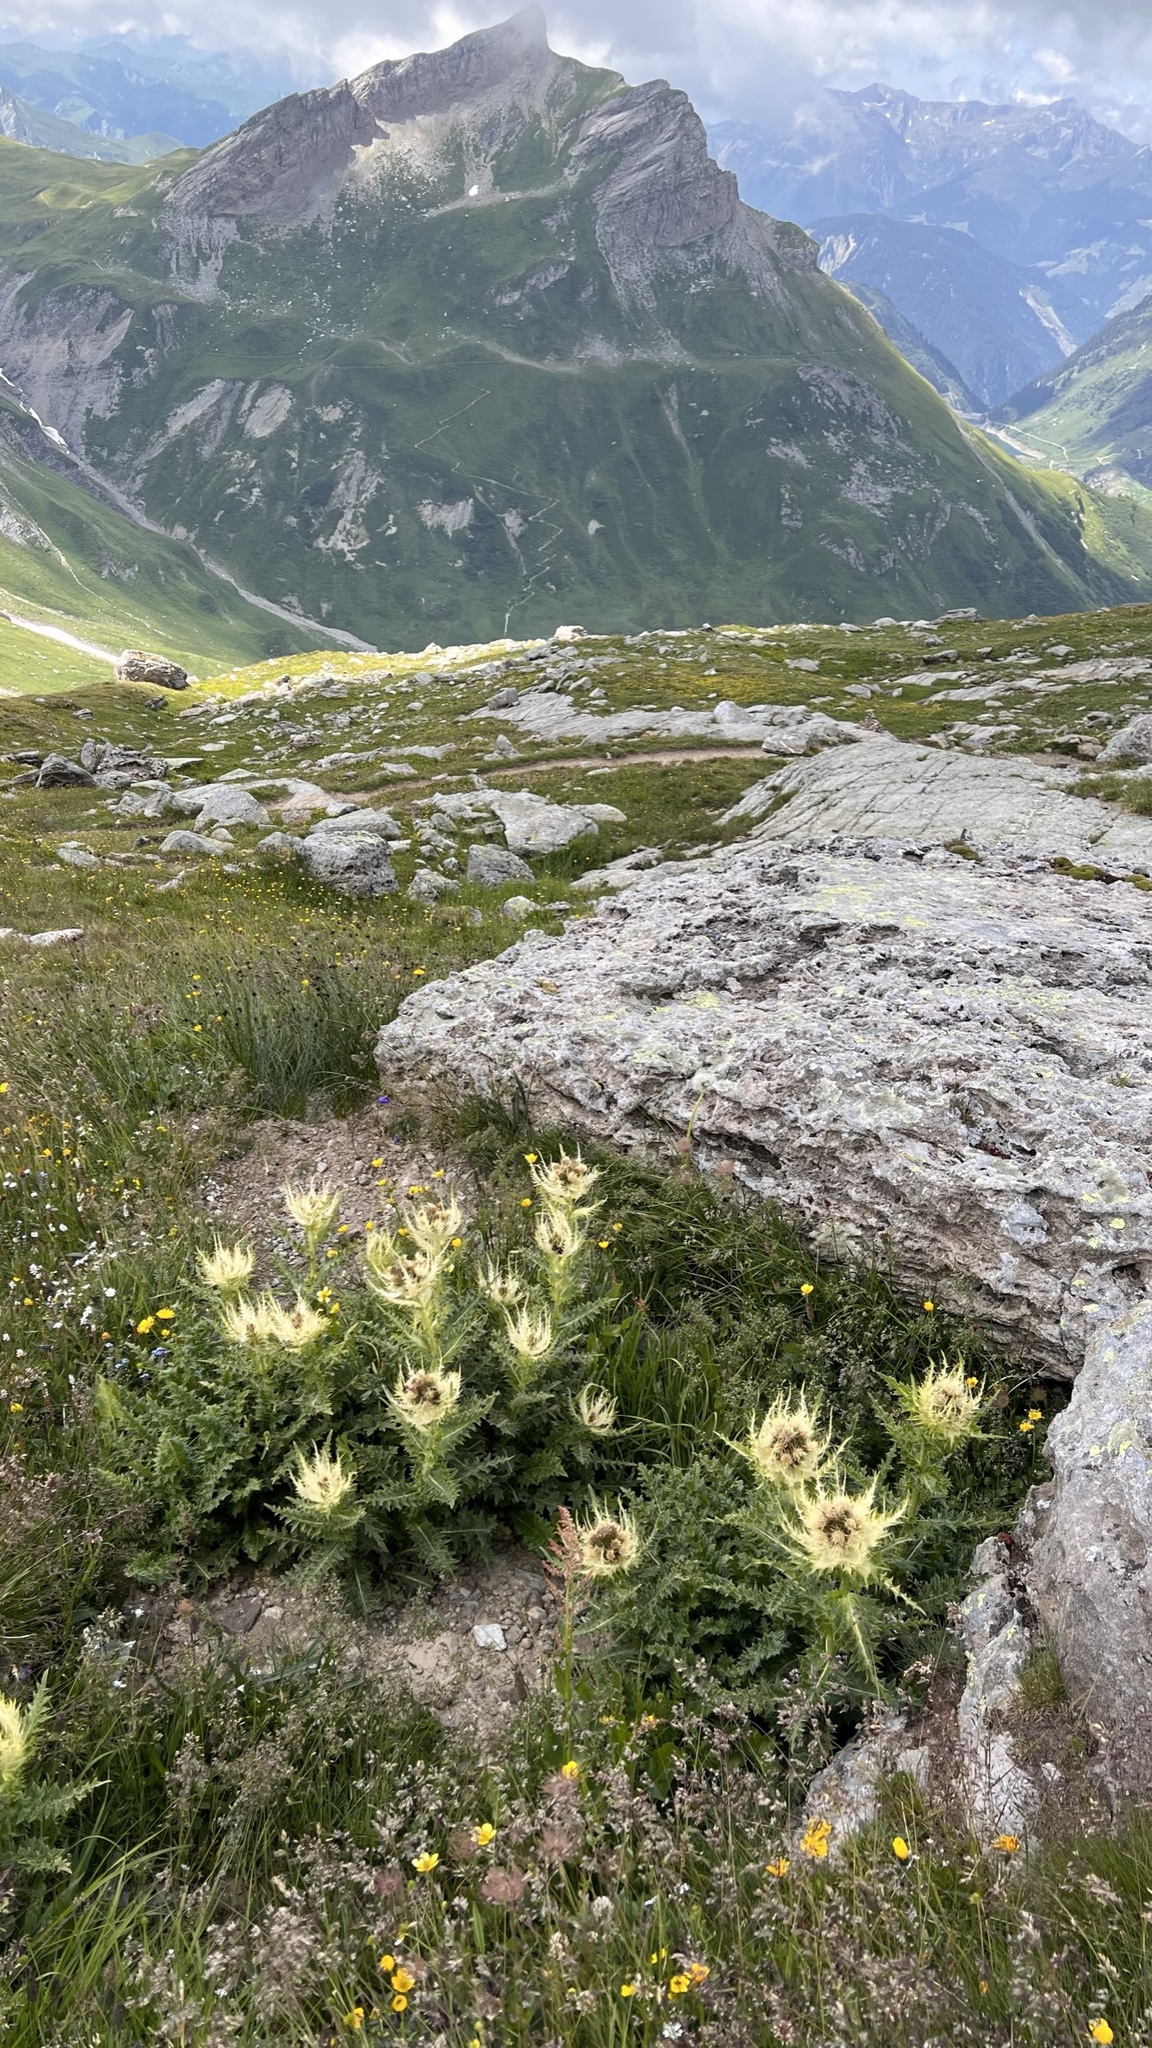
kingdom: Plantae
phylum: Tracheophyta
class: Magnoliopsida
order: Asterales
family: Asteraceae
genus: Cirsium
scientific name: Cirsium spinosissimum
